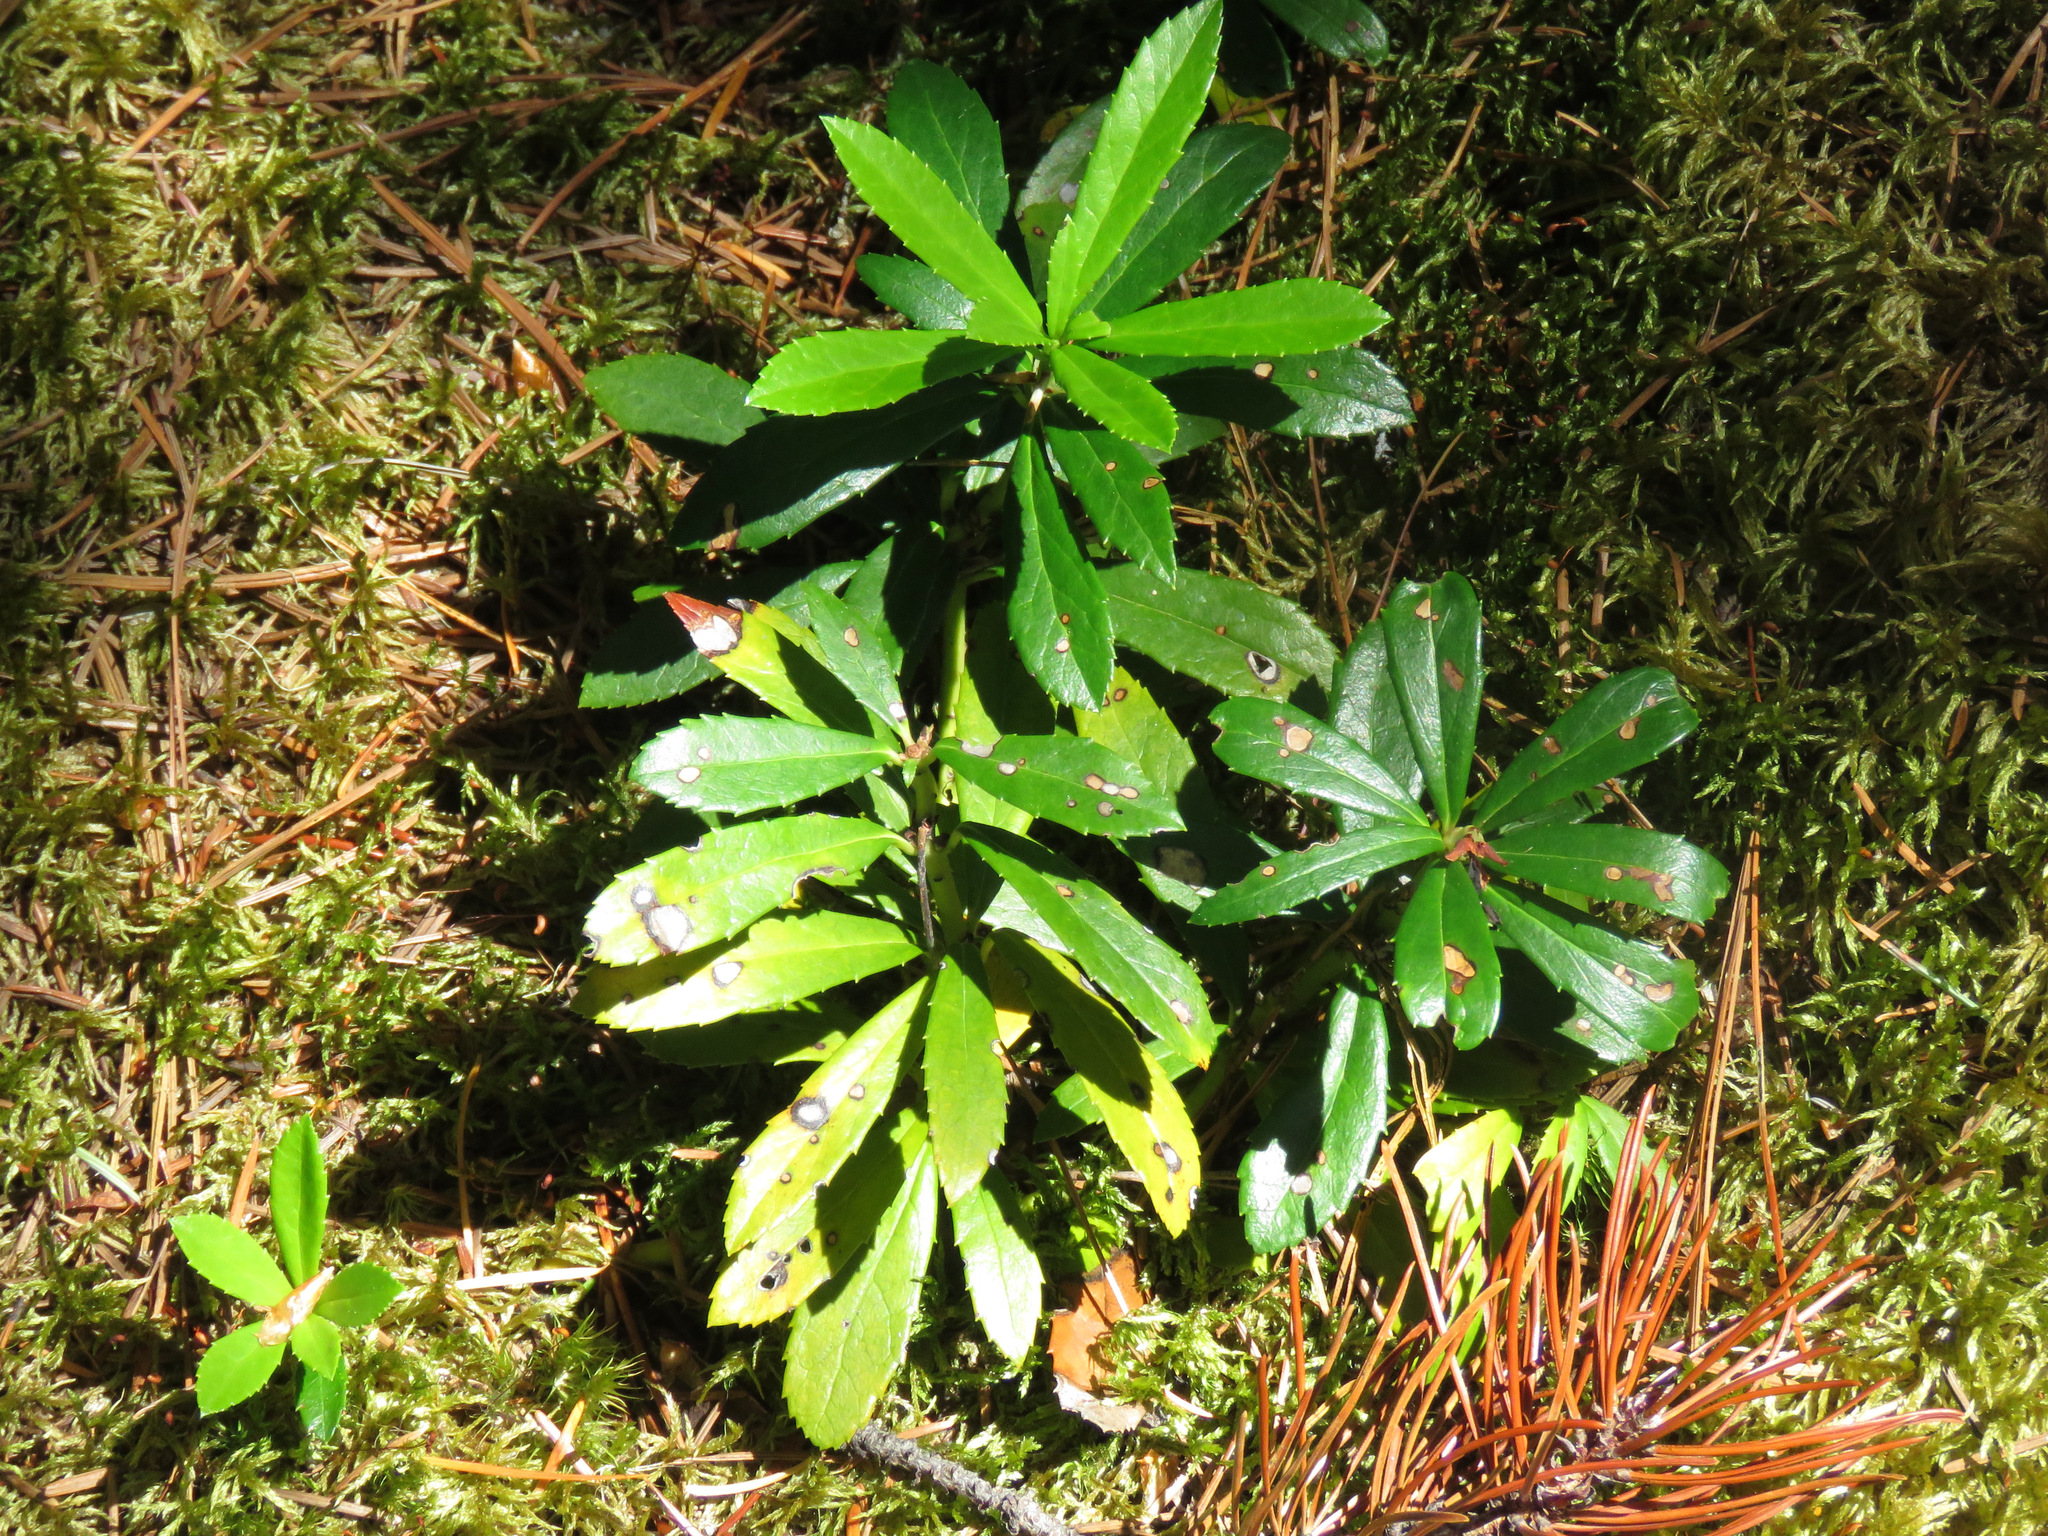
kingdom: Plantae
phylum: Tracheophyta
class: Magnoliopsida
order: Ericales
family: Ericaceae
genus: Chimaphila
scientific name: Chimaphila umbellata
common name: Pipsissewa
